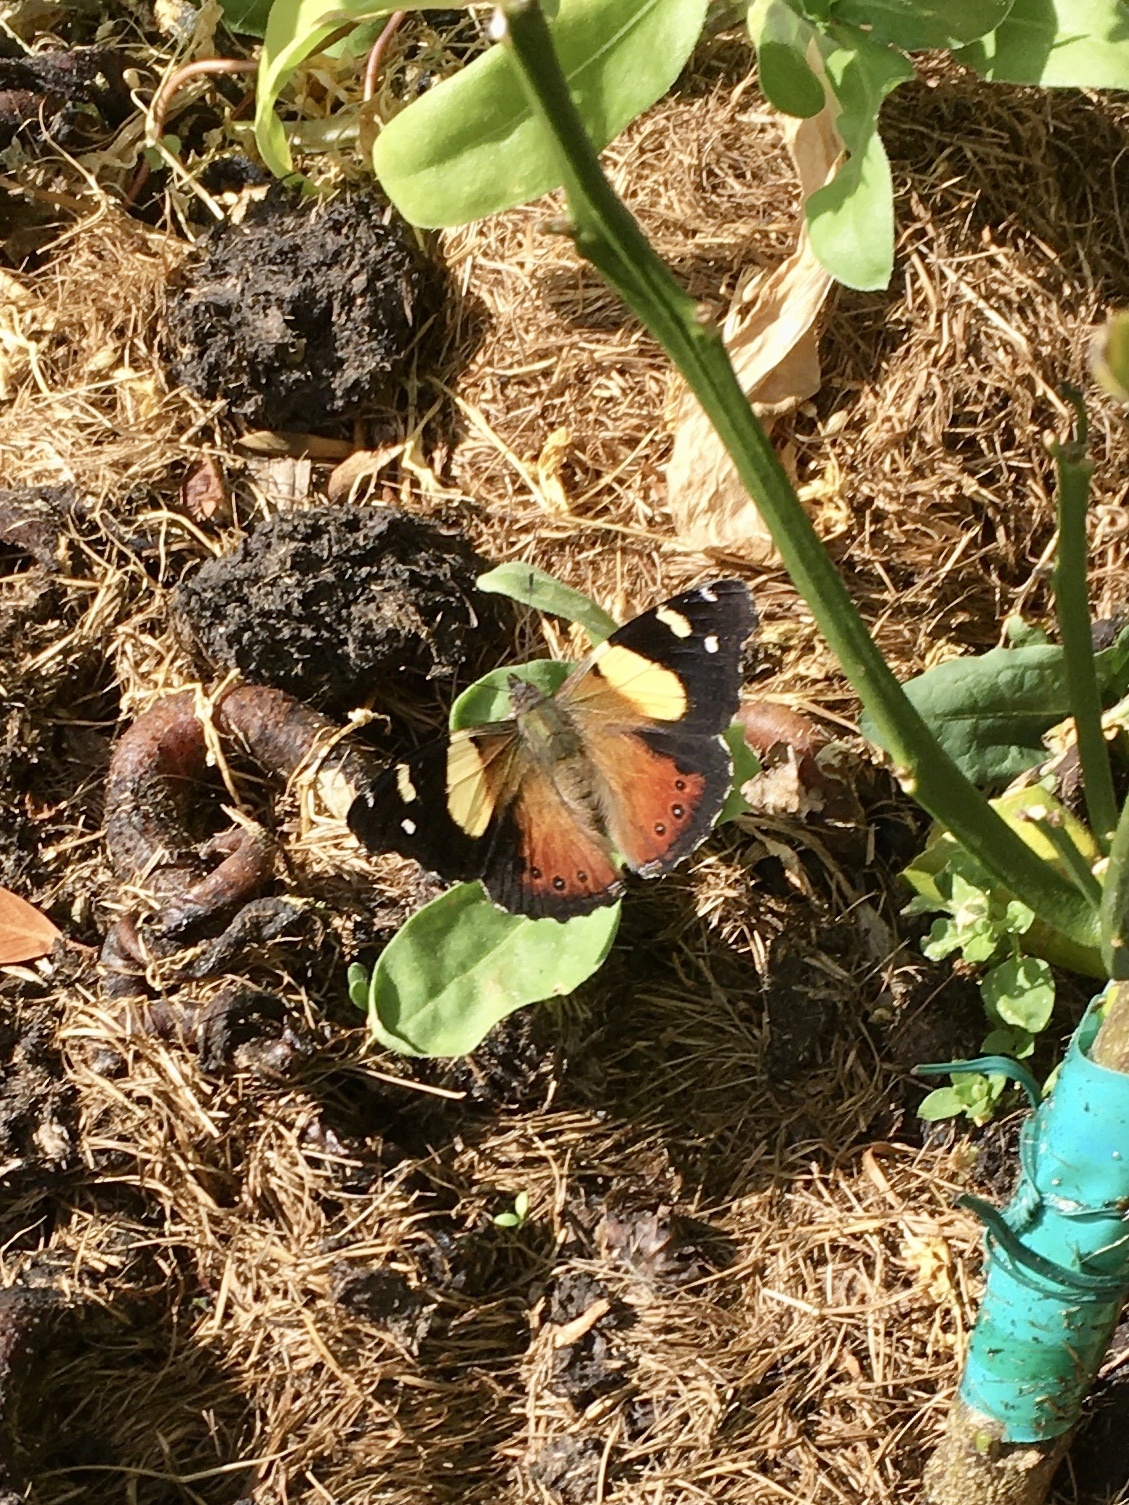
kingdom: Animalia
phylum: Arthropoda
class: Insecta
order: Lepidoptera
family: Nymphalidae
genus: Vanessa
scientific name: Vanessa itea
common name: Yellow admiral
